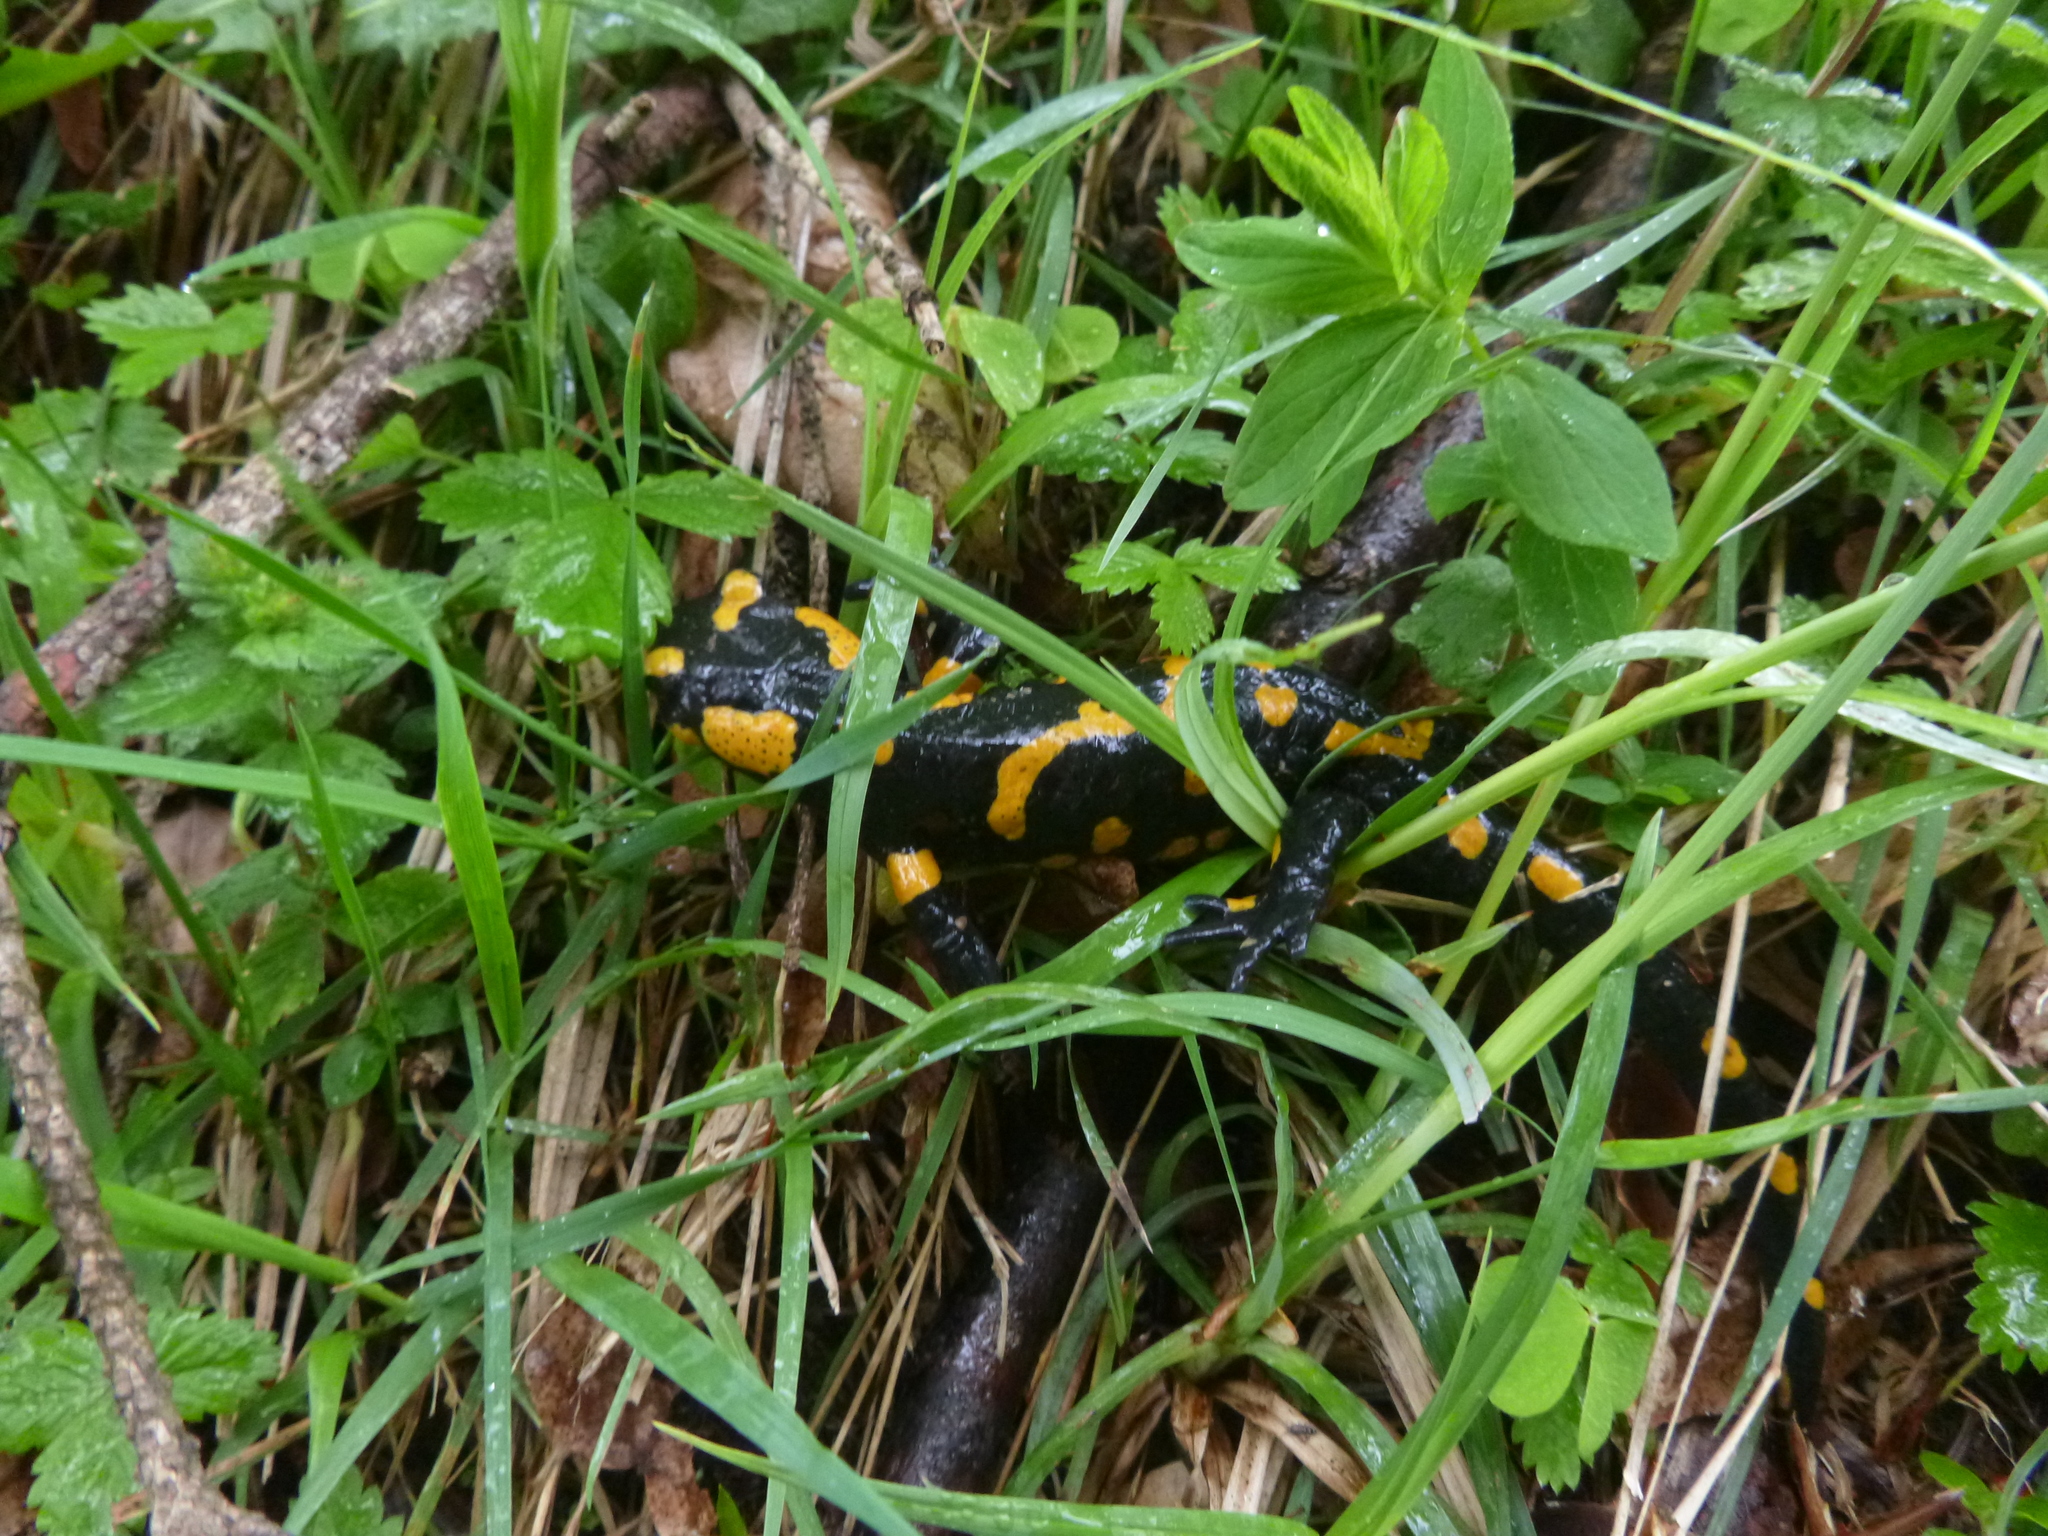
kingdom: Animalia
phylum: Chordata
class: Amphibia
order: Caudata
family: Salamandridae
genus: Salamandra
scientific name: Salamandra salamandra
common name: Fire salamander
